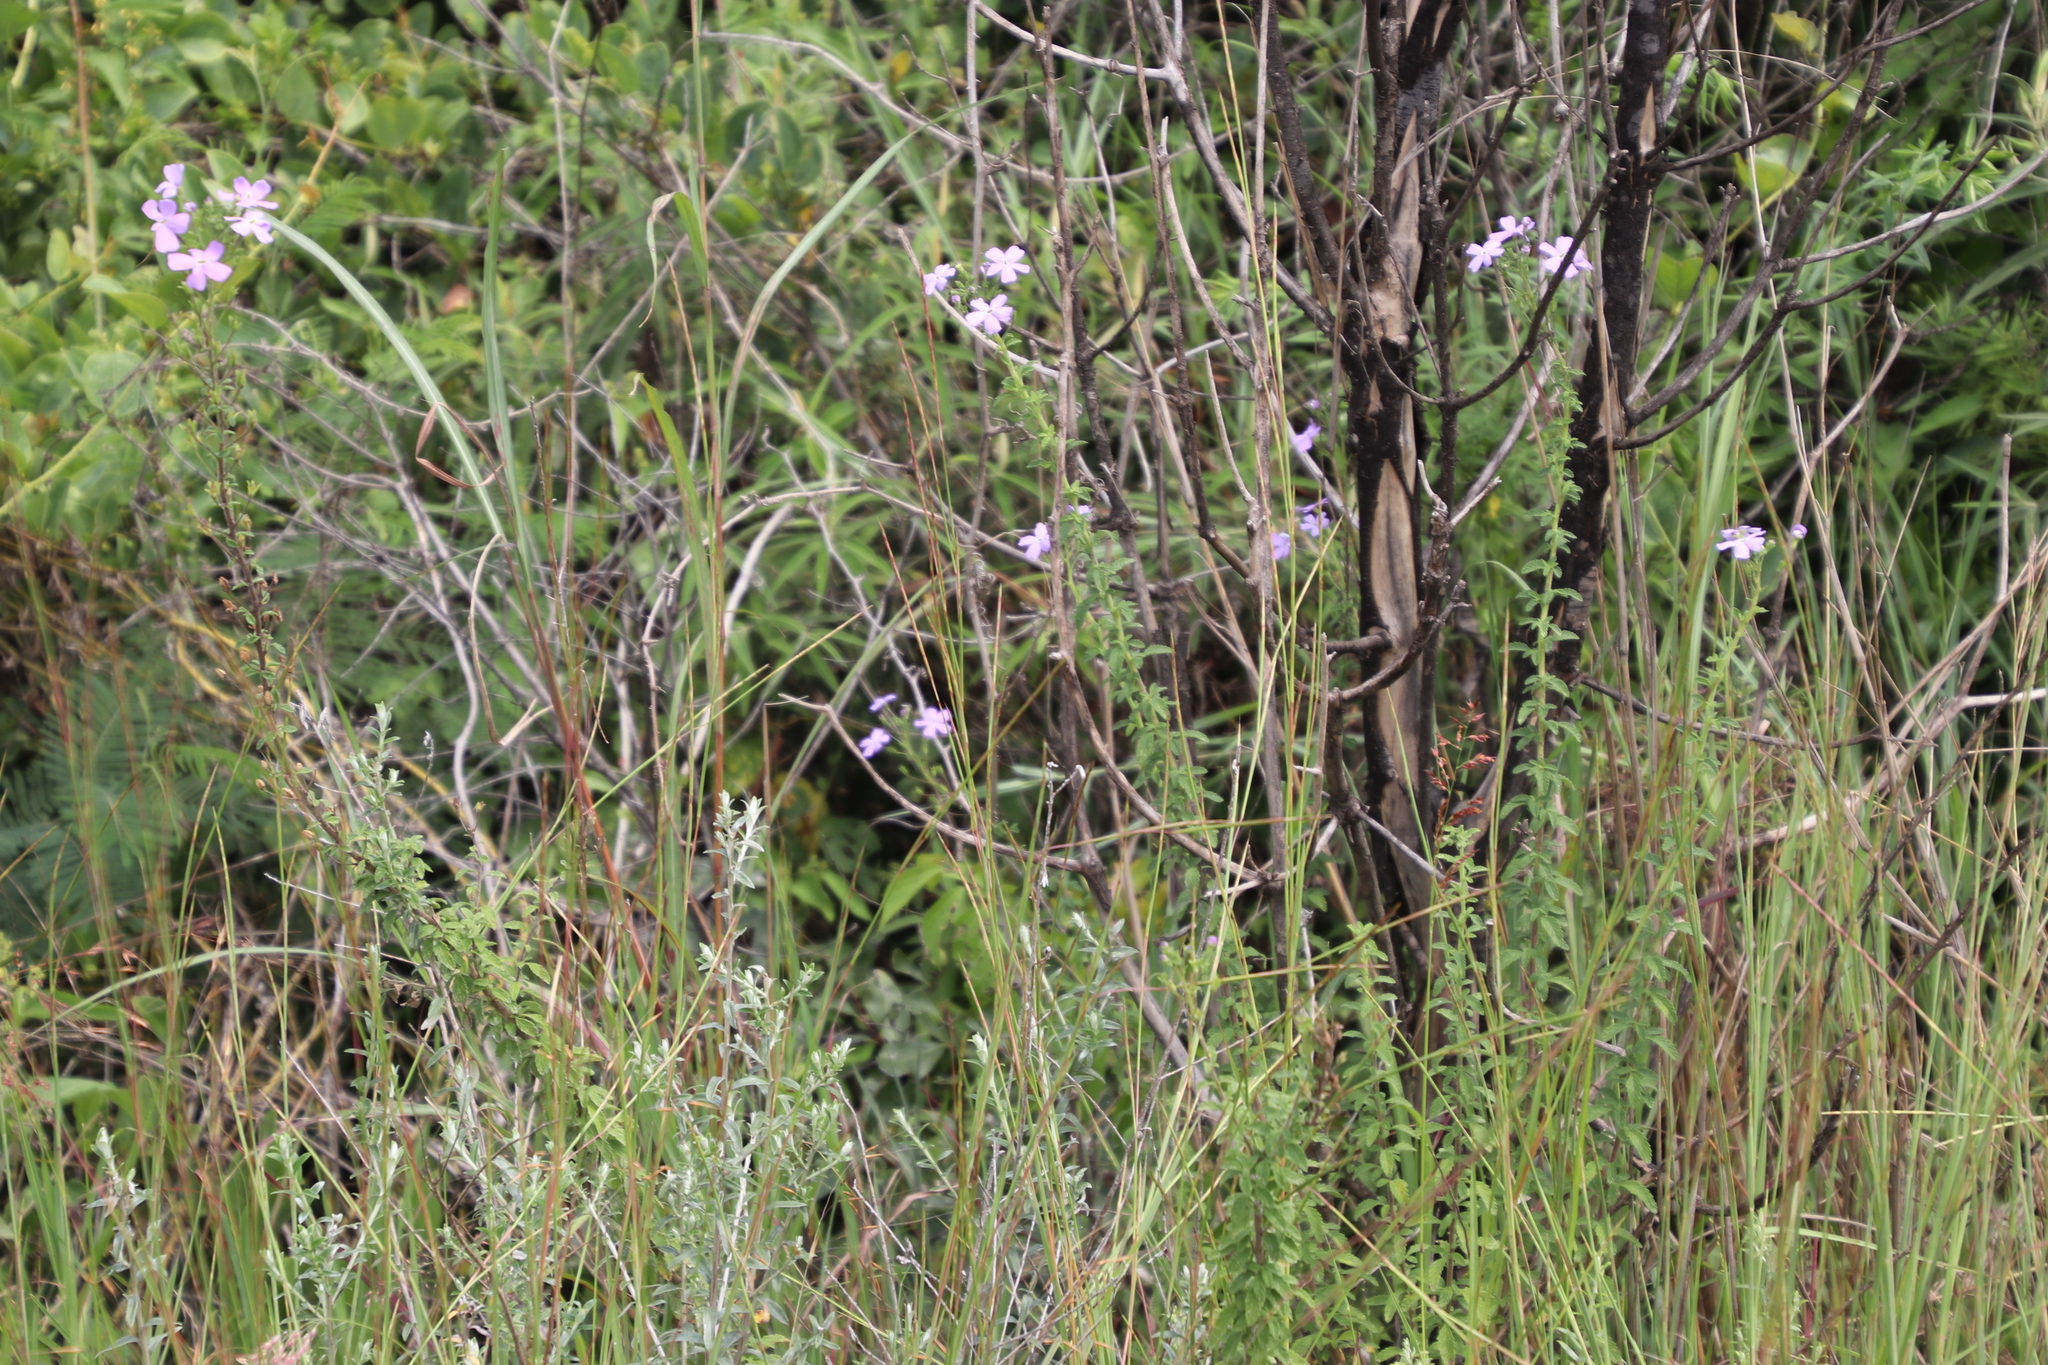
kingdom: Plantae
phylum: Tracheophyta
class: Magnoliopsida
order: Lamiales
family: Scrophulariaceae
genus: Jamesbrittenia
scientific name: Jamesbrittenia grandiflora
